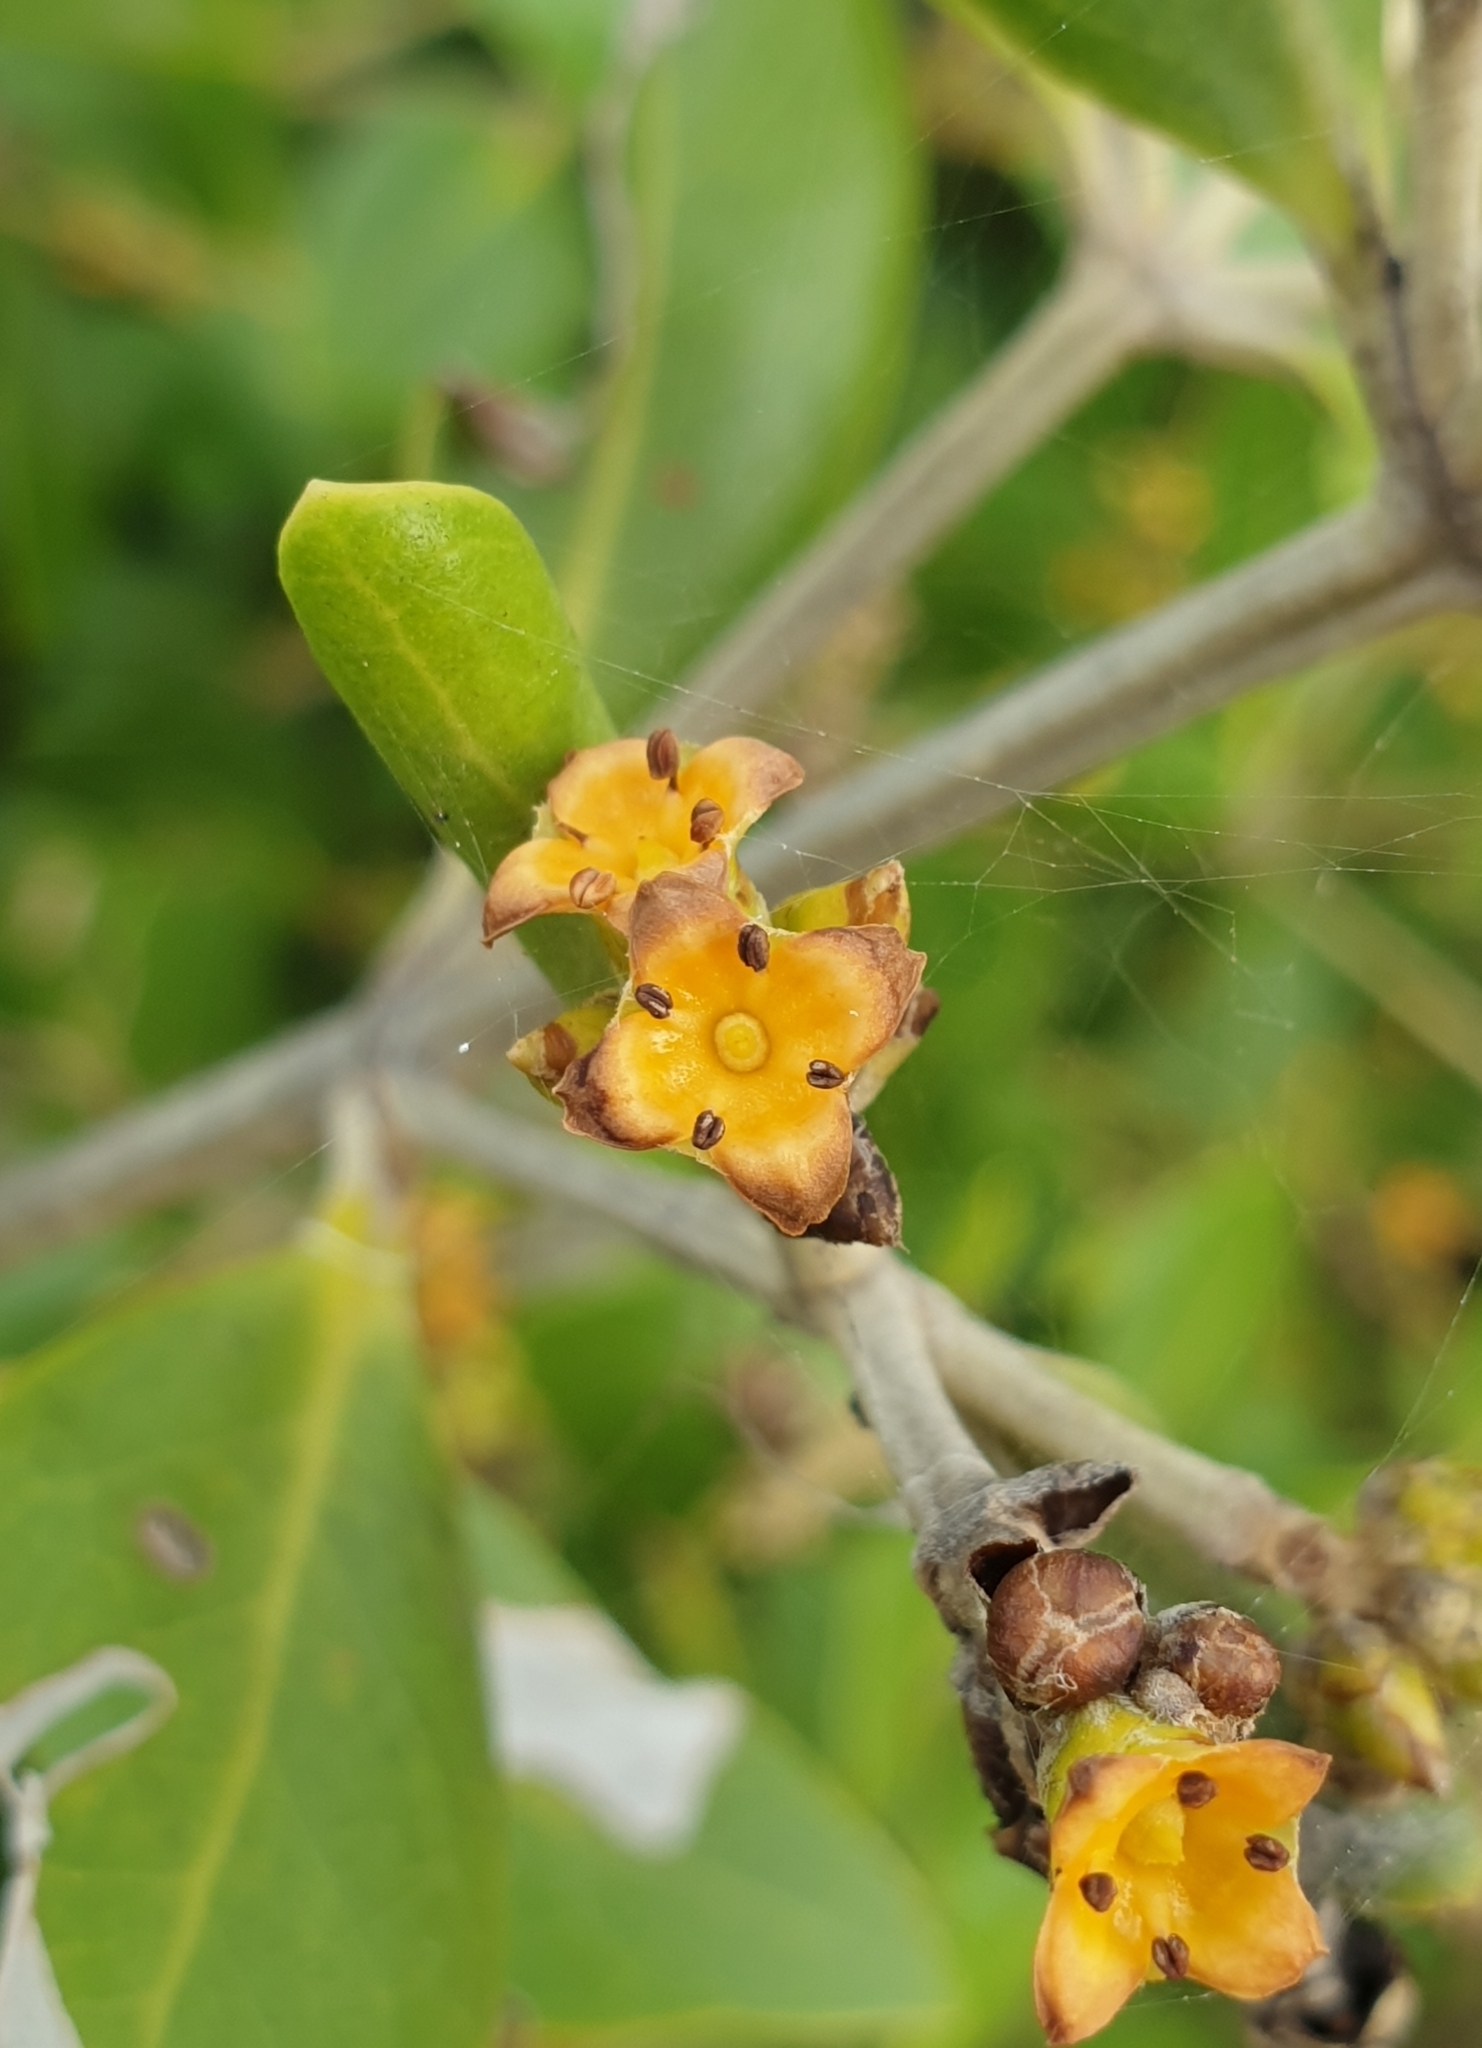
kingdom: Plantae
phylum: Tracheophyta
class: Magnoliopsida
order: Lamiales
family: Acanthaceae
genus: Avicennia
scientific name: Avicennia marina
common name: Gray mangrove
